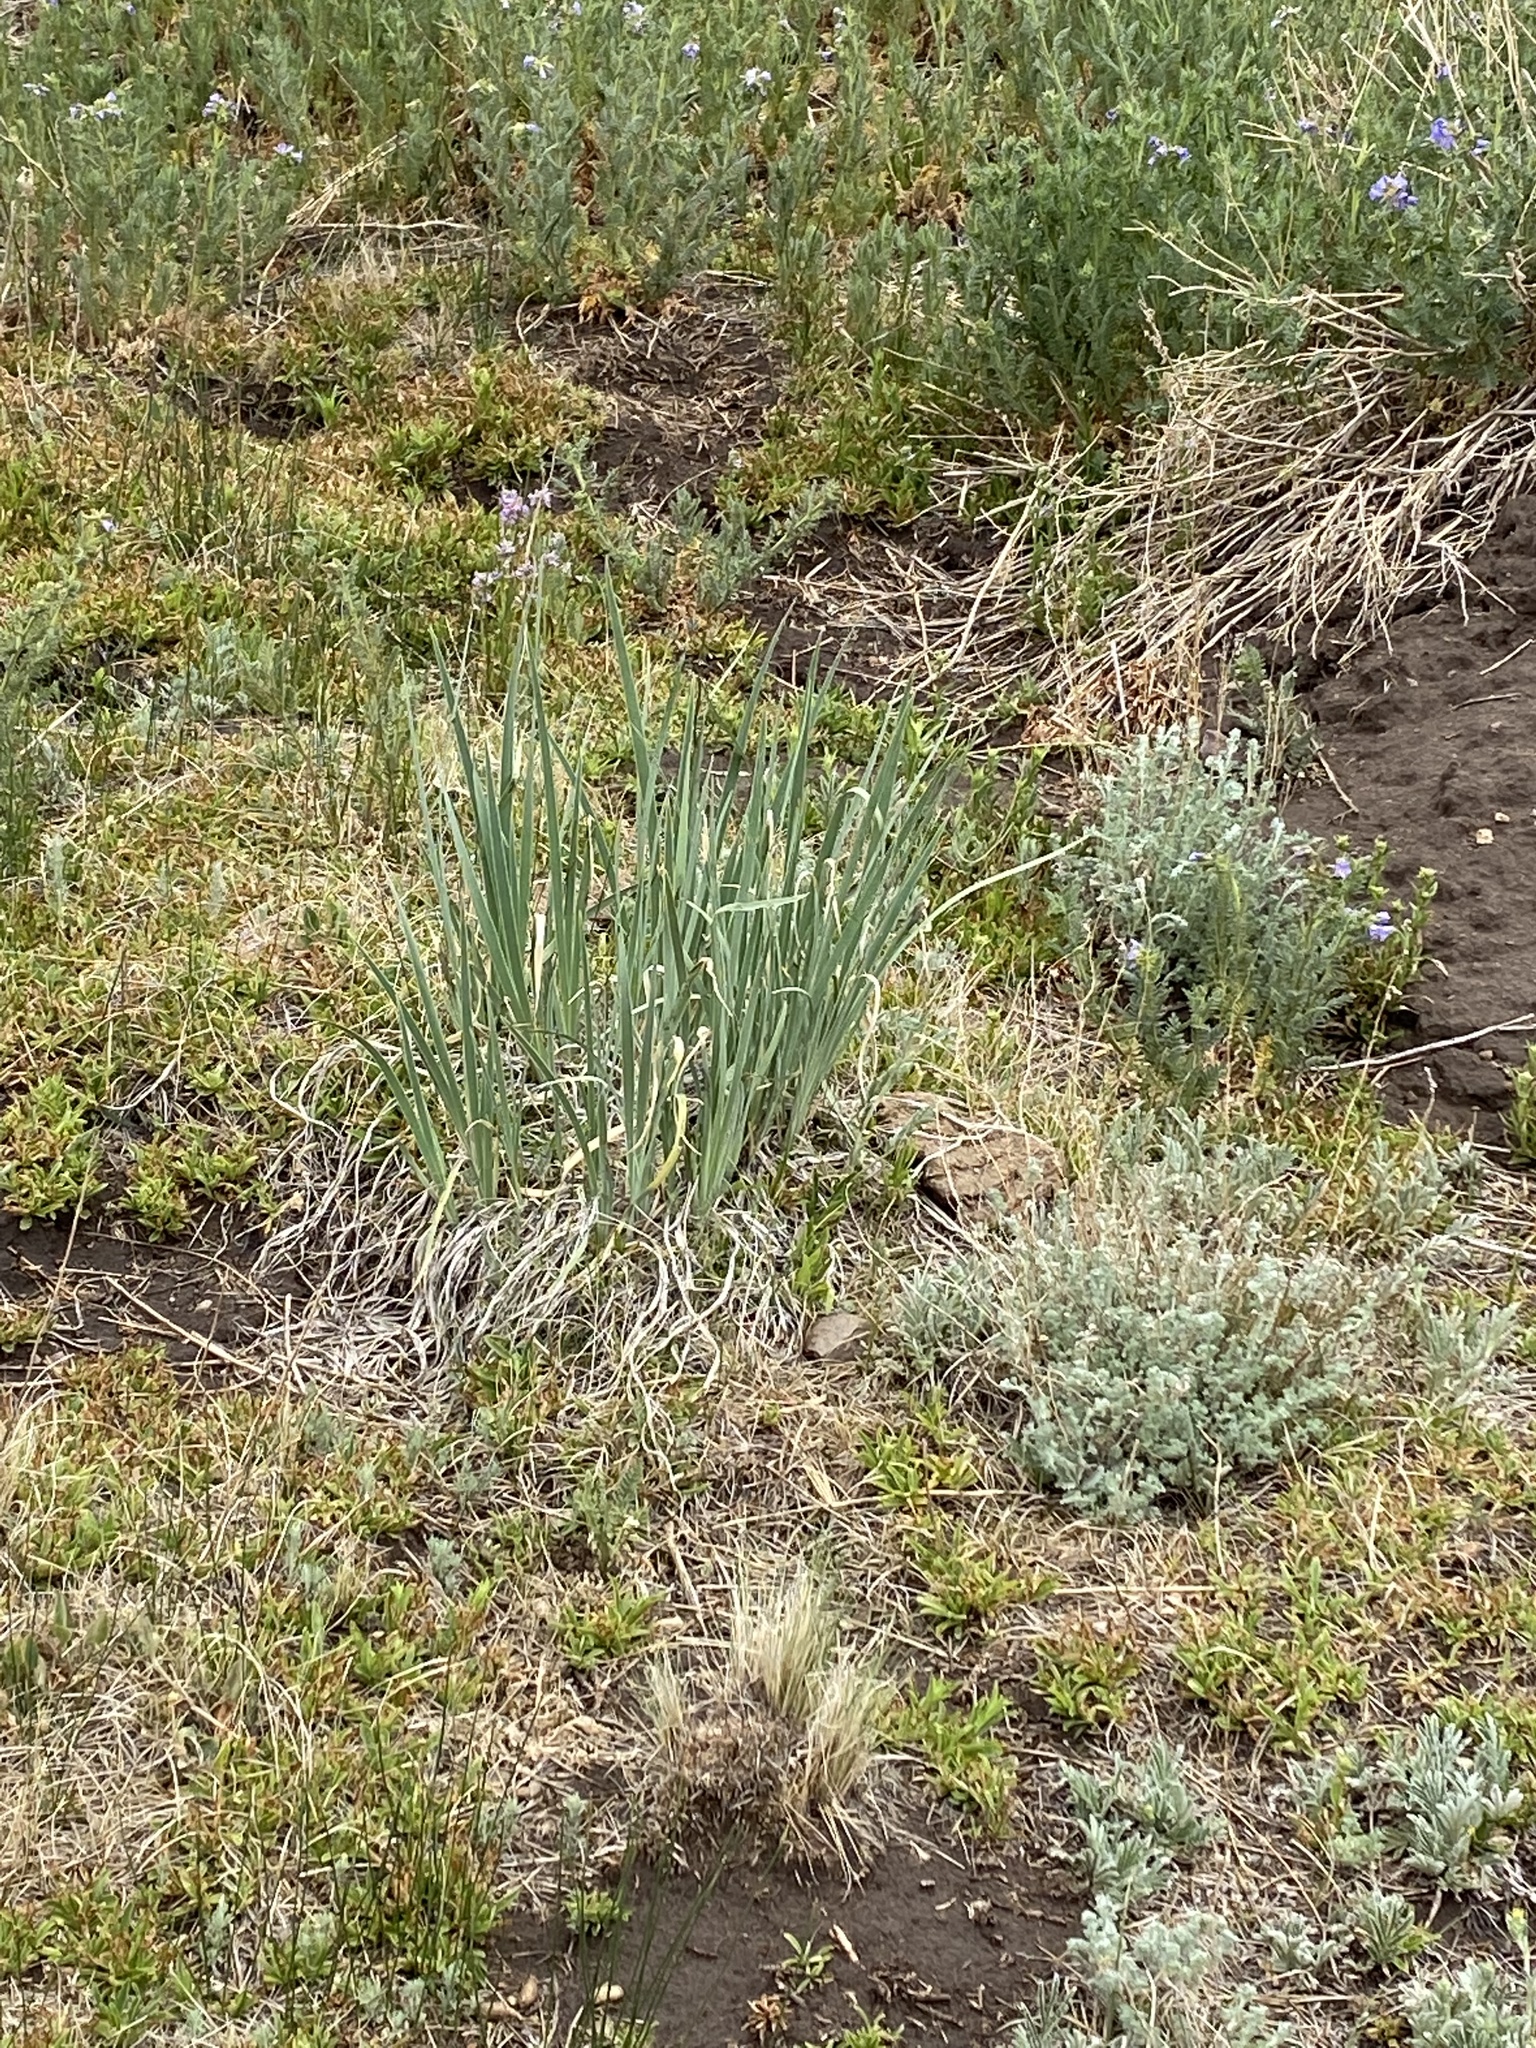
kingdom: Plantae
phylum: Tracheophyta
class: Liliopsida
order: Asparagales
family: Iridaceae
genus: Iris
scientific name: Iris missouriensis
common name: Rocky mountain iris
